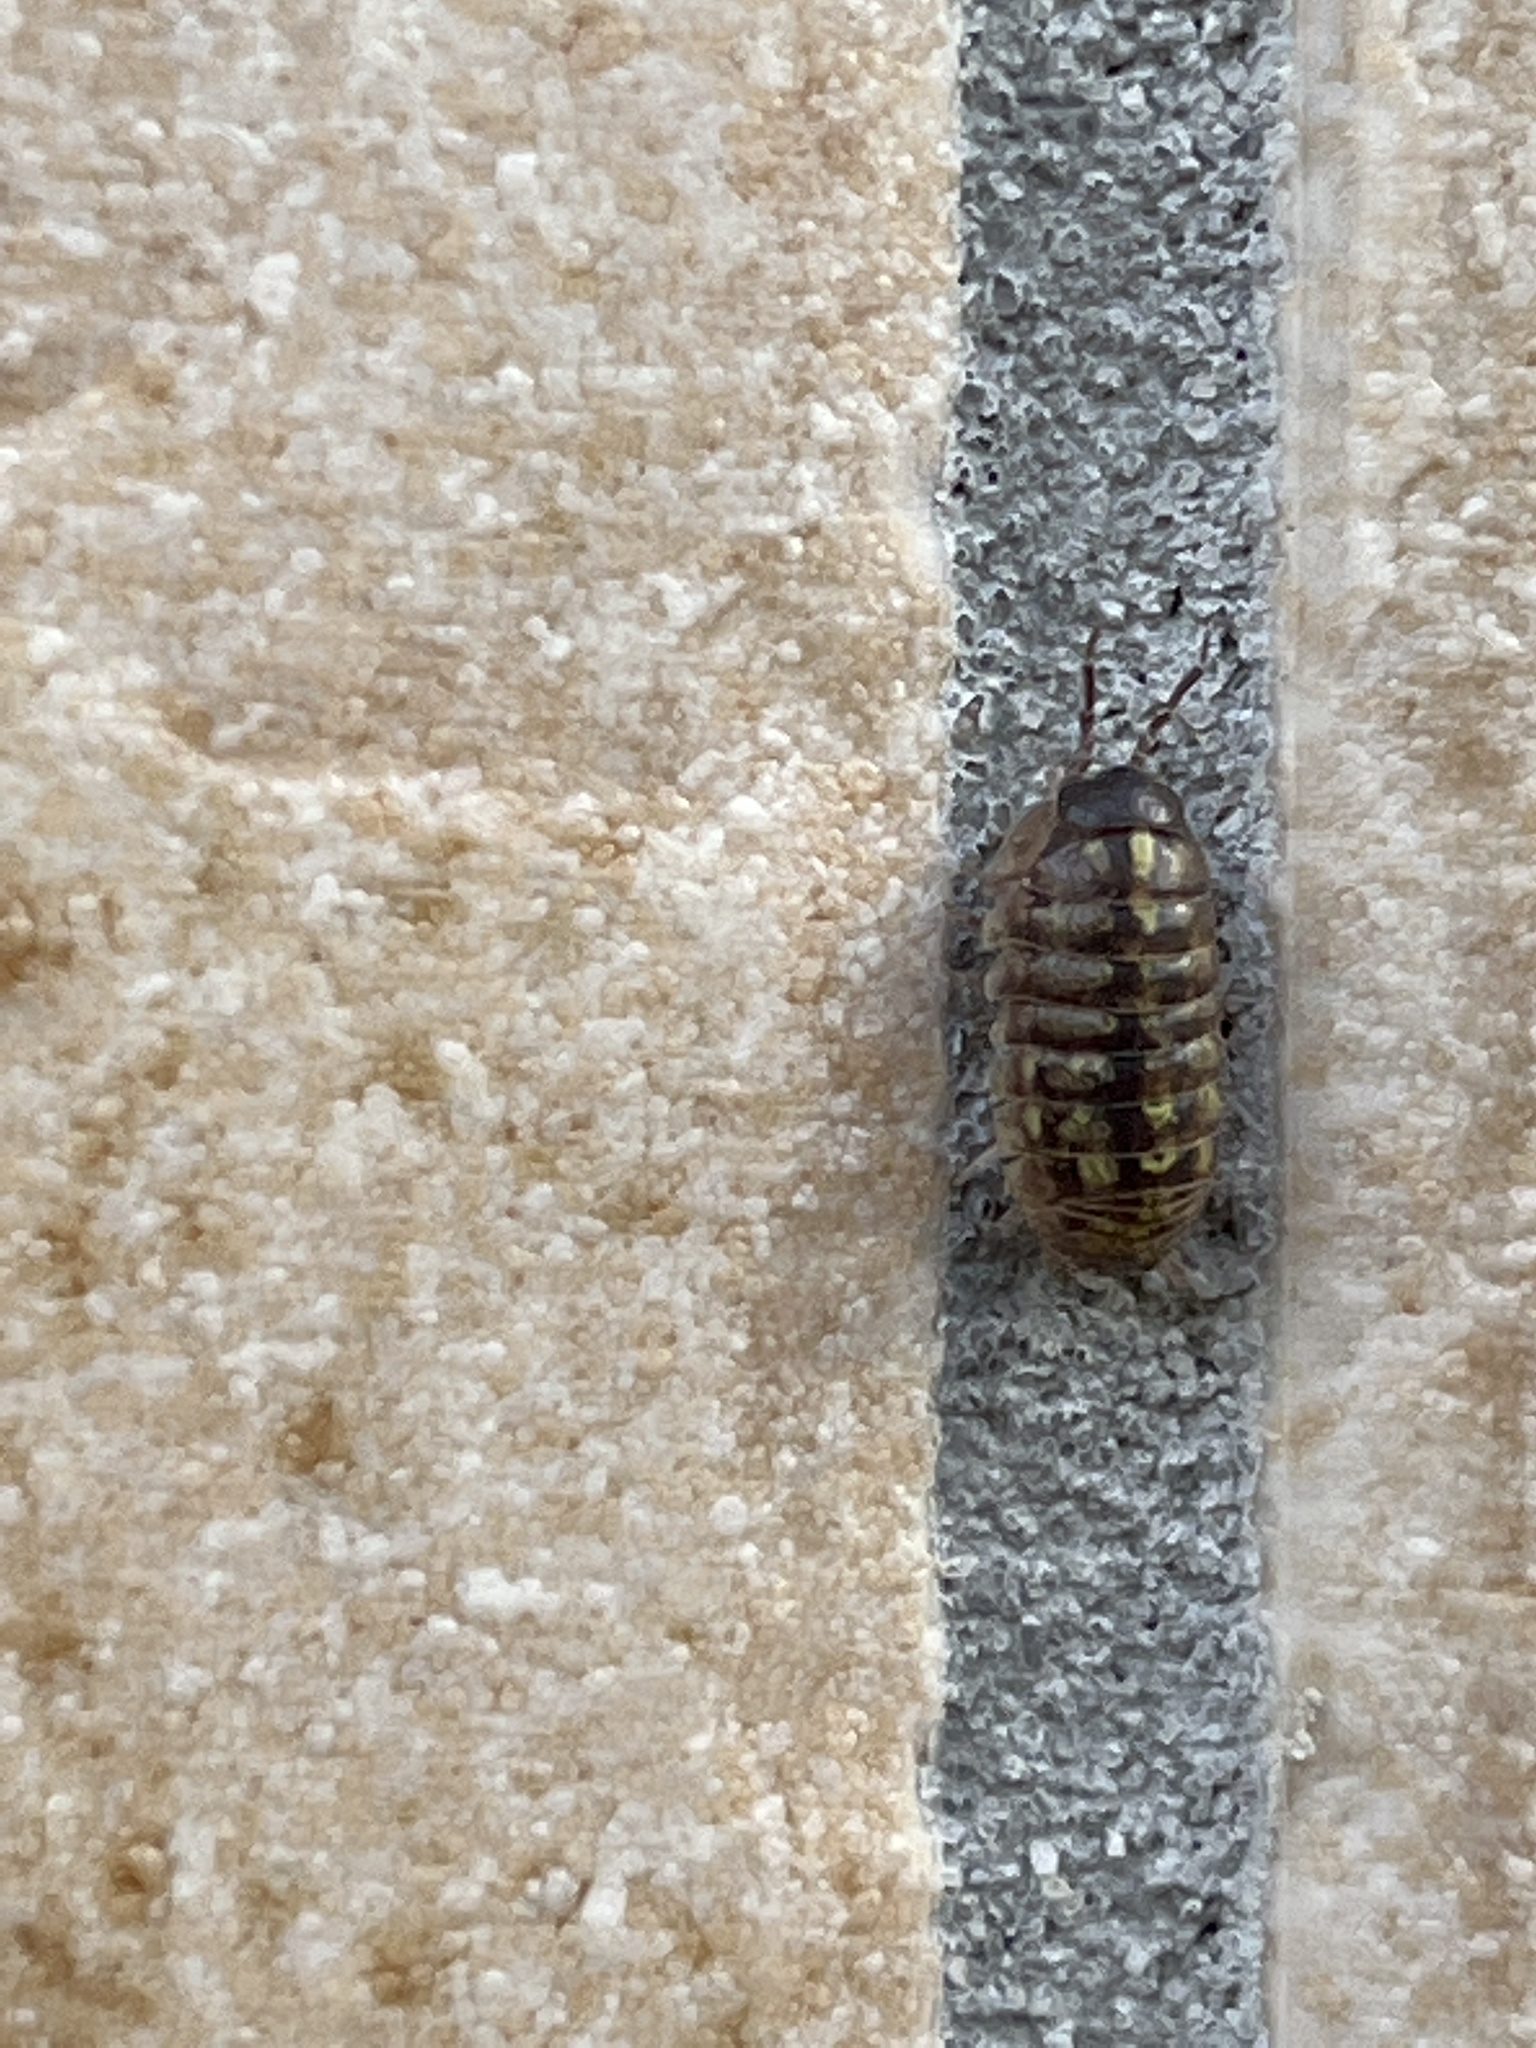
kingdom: Animalia
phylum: Arthropoda
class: Malacostraca
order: Isopoda
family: Armadillidiidae
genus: Armadillidium
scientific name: Armadillidium vulgare
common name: Common pill woodlouse
